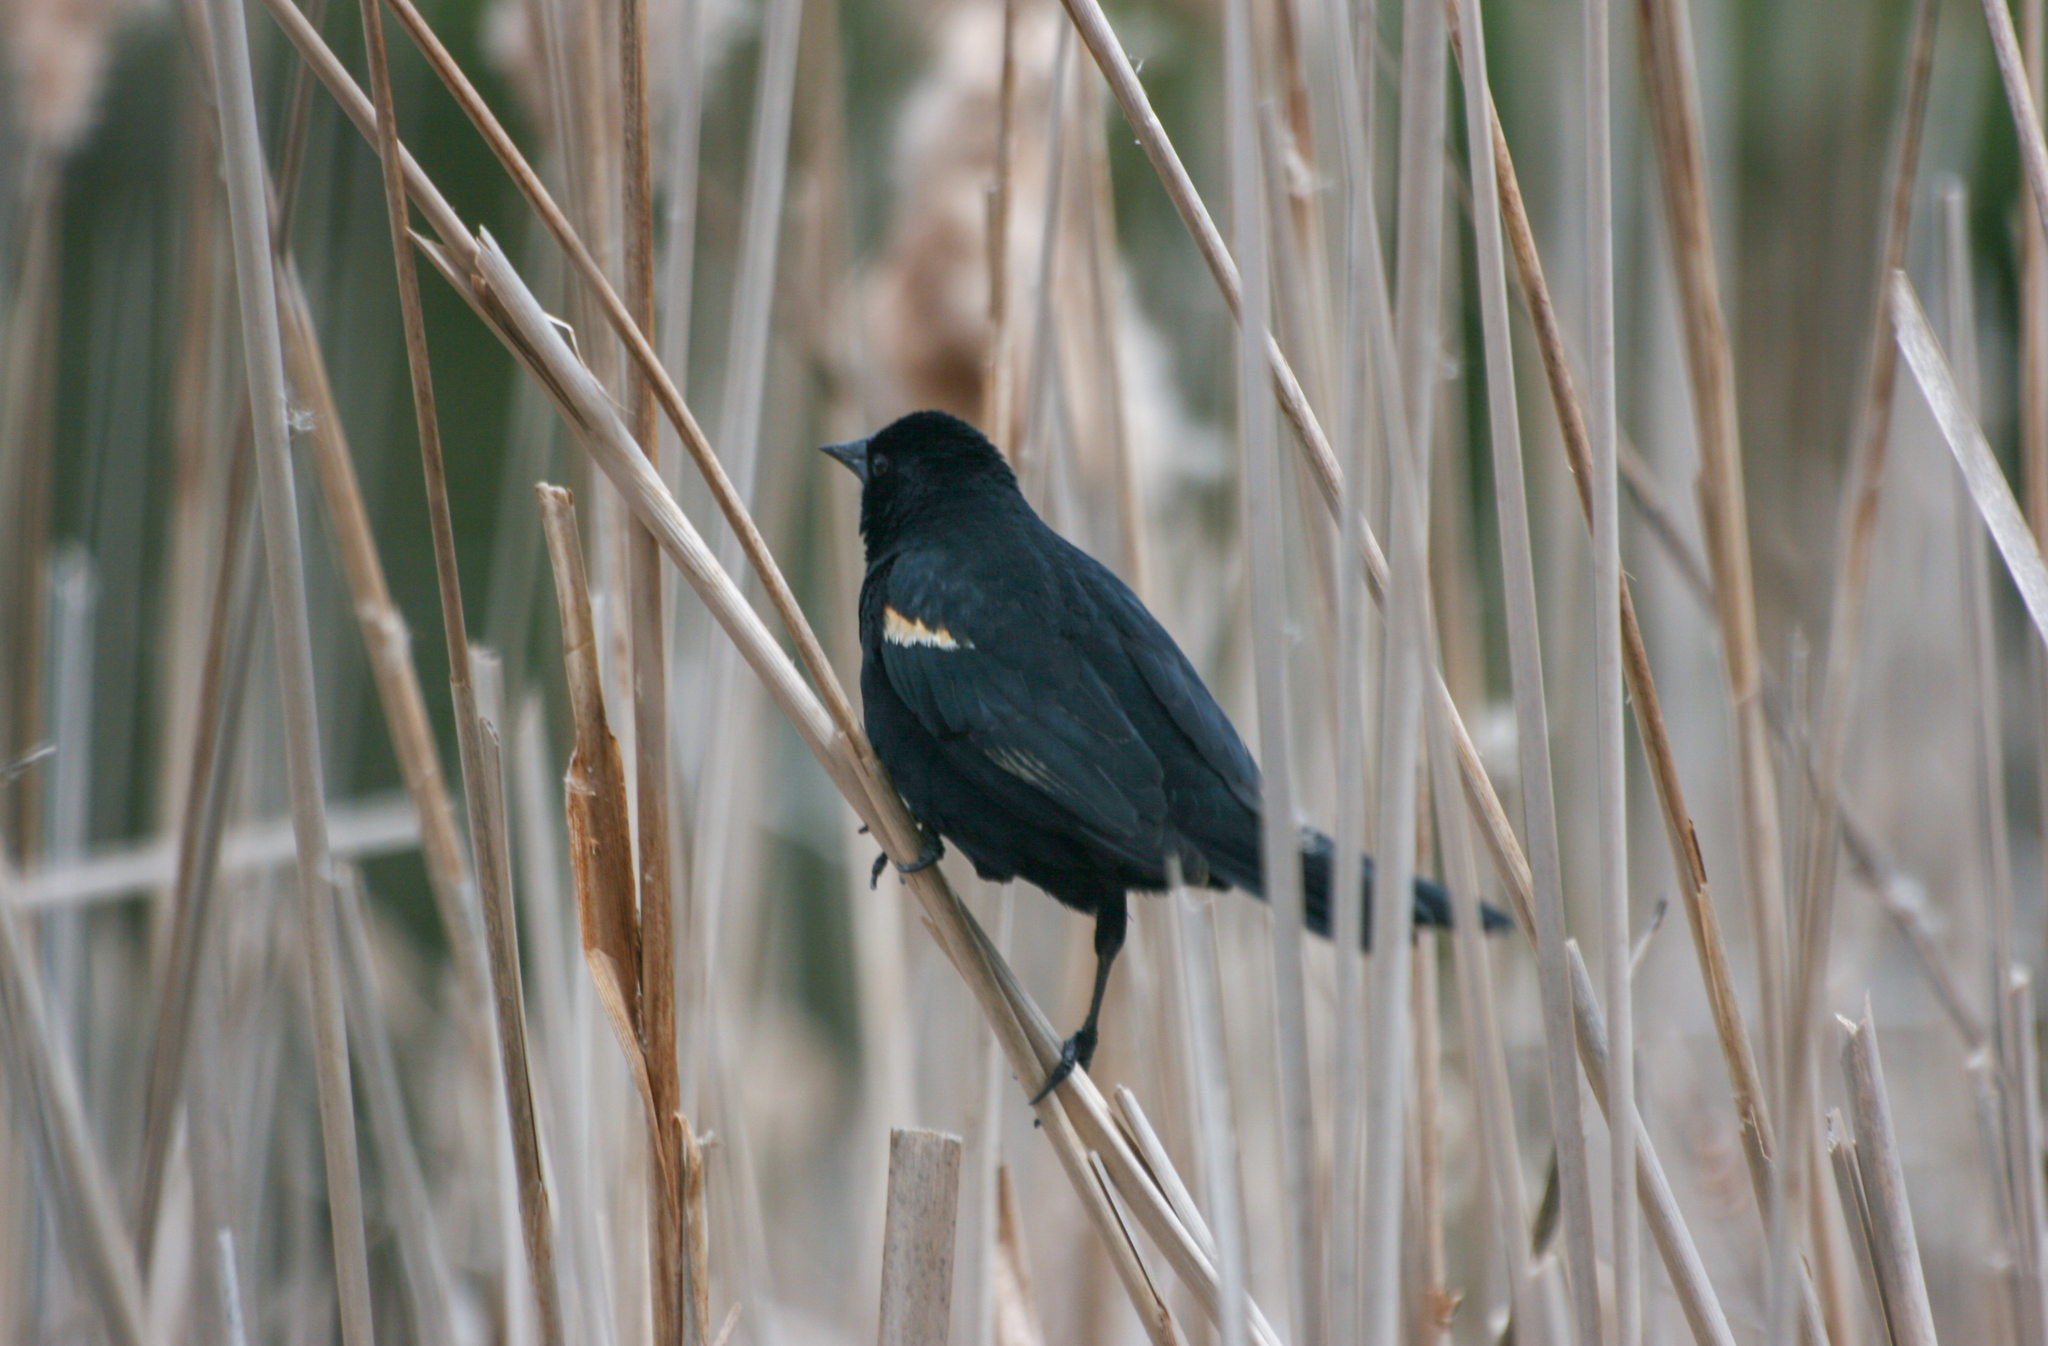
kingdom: Animalia
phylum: Chordata
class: Aves
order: Passeriformes
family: Icteridae
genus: Agelaius
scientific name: Agelaius phoeniceus
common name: Red-winged blackbird
